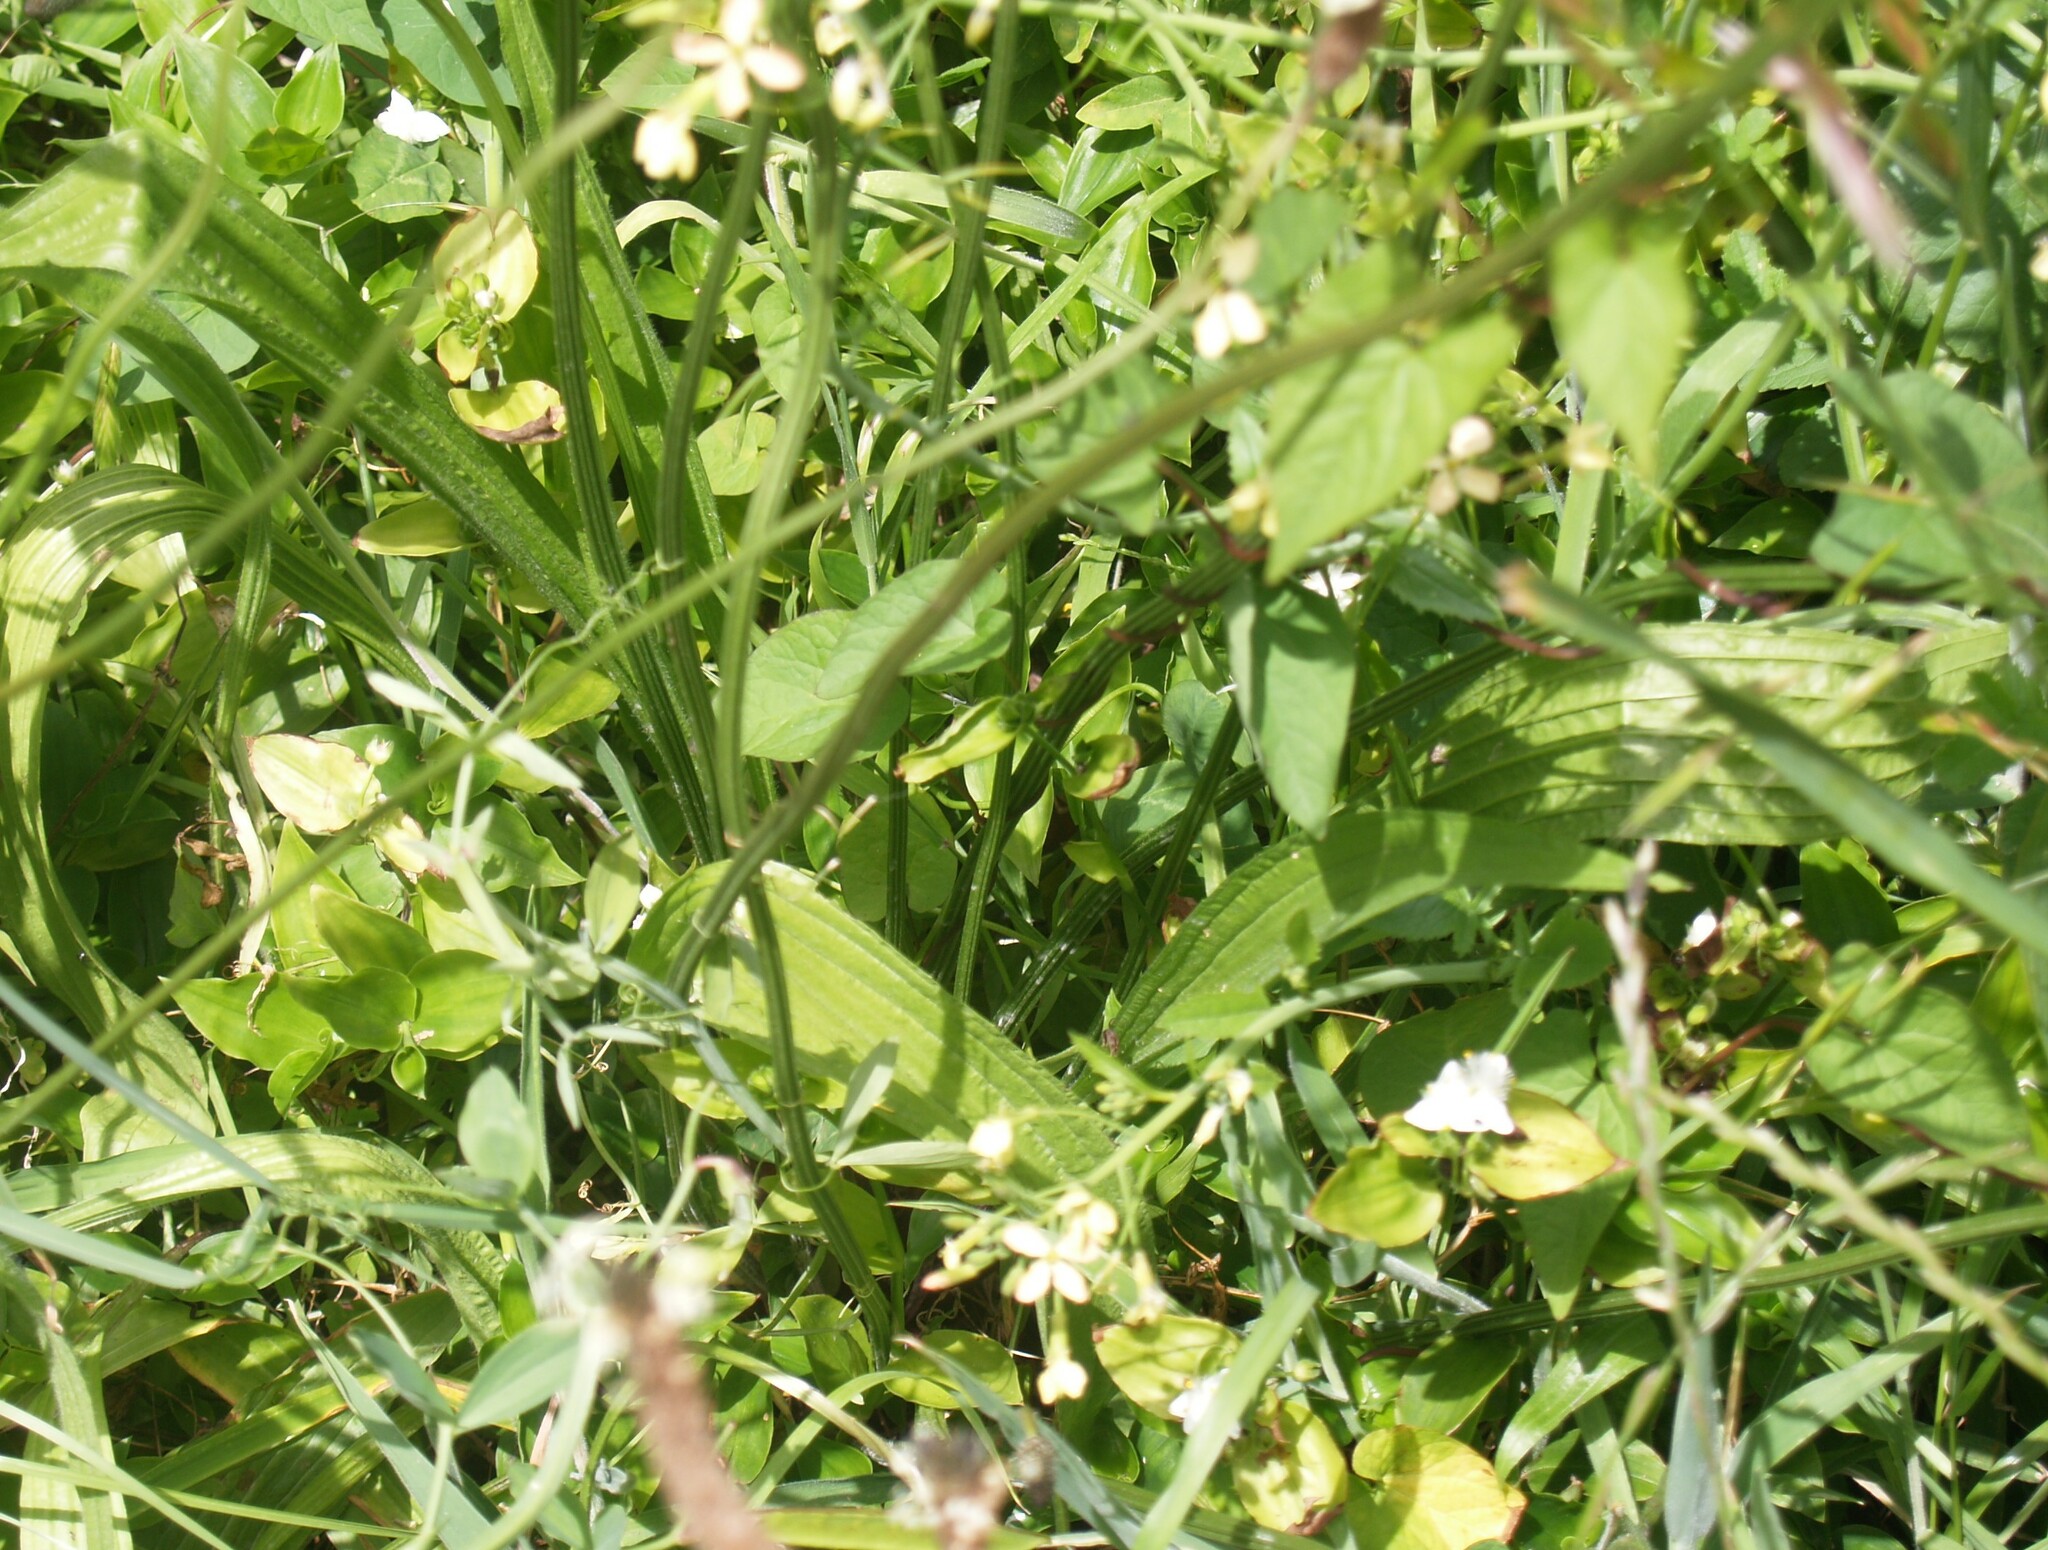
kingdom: Plantae
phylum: Tracheophyta
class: Magnoliopsida
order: Lamiales
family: Plantaginaceae
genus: Plantago
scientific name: Plantago lanceolata
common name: Ribwort plantain
